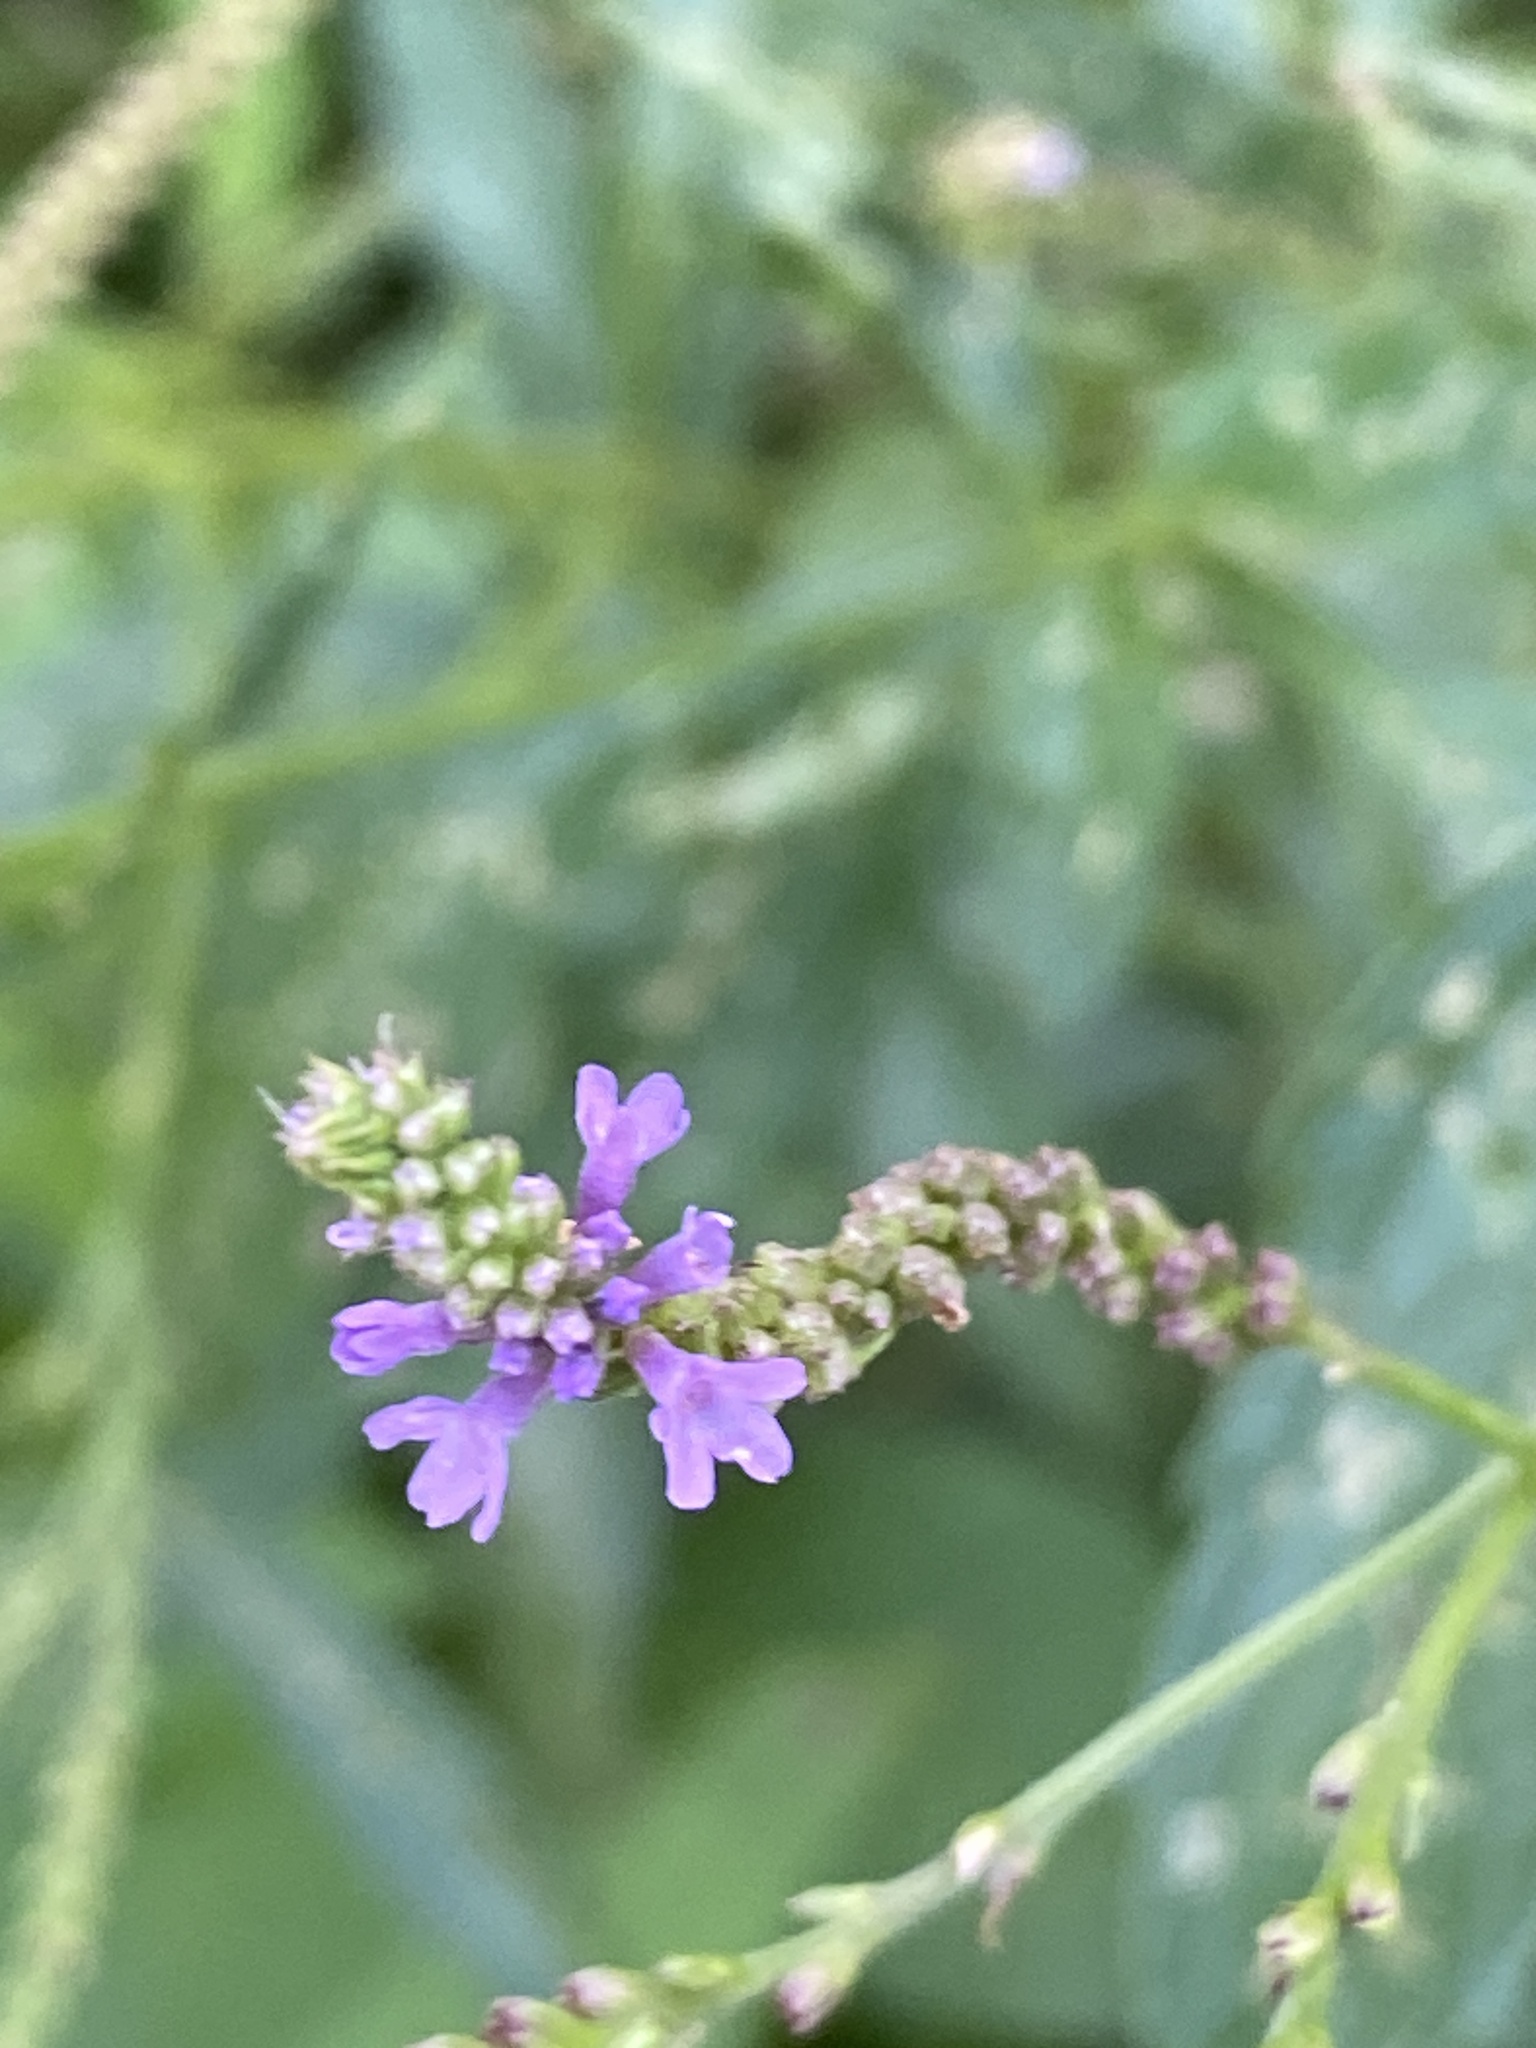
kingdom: Plantae
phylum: Tracheophyta
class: Magnoliopsida
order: Lamiales
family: Verbenaceae
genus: Verbena
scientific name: Verbena hastata
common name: American blue vervain
